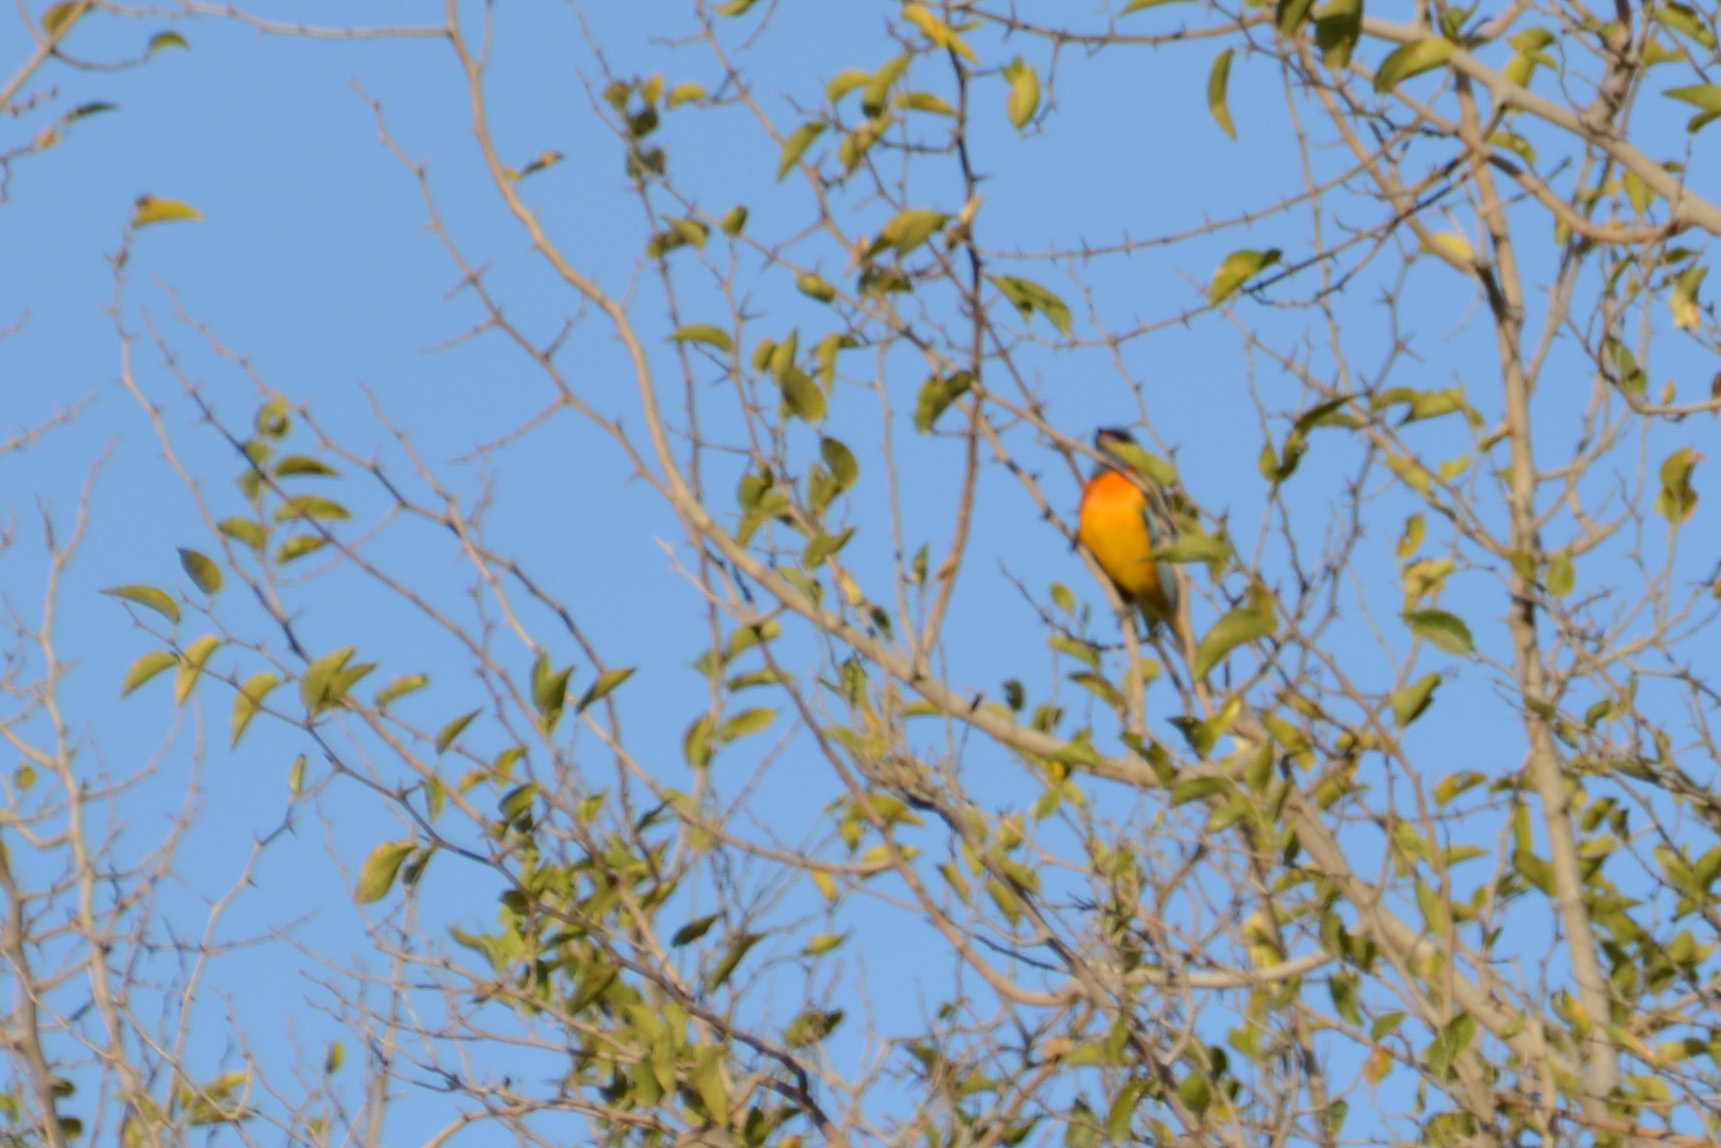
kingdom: Animalia
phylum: Chordata
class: Aves
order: Passeriformes
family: Thraupidae
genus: Rauenia
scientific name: Rauenia bonariensis
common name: Blue-and-yellow tanager
